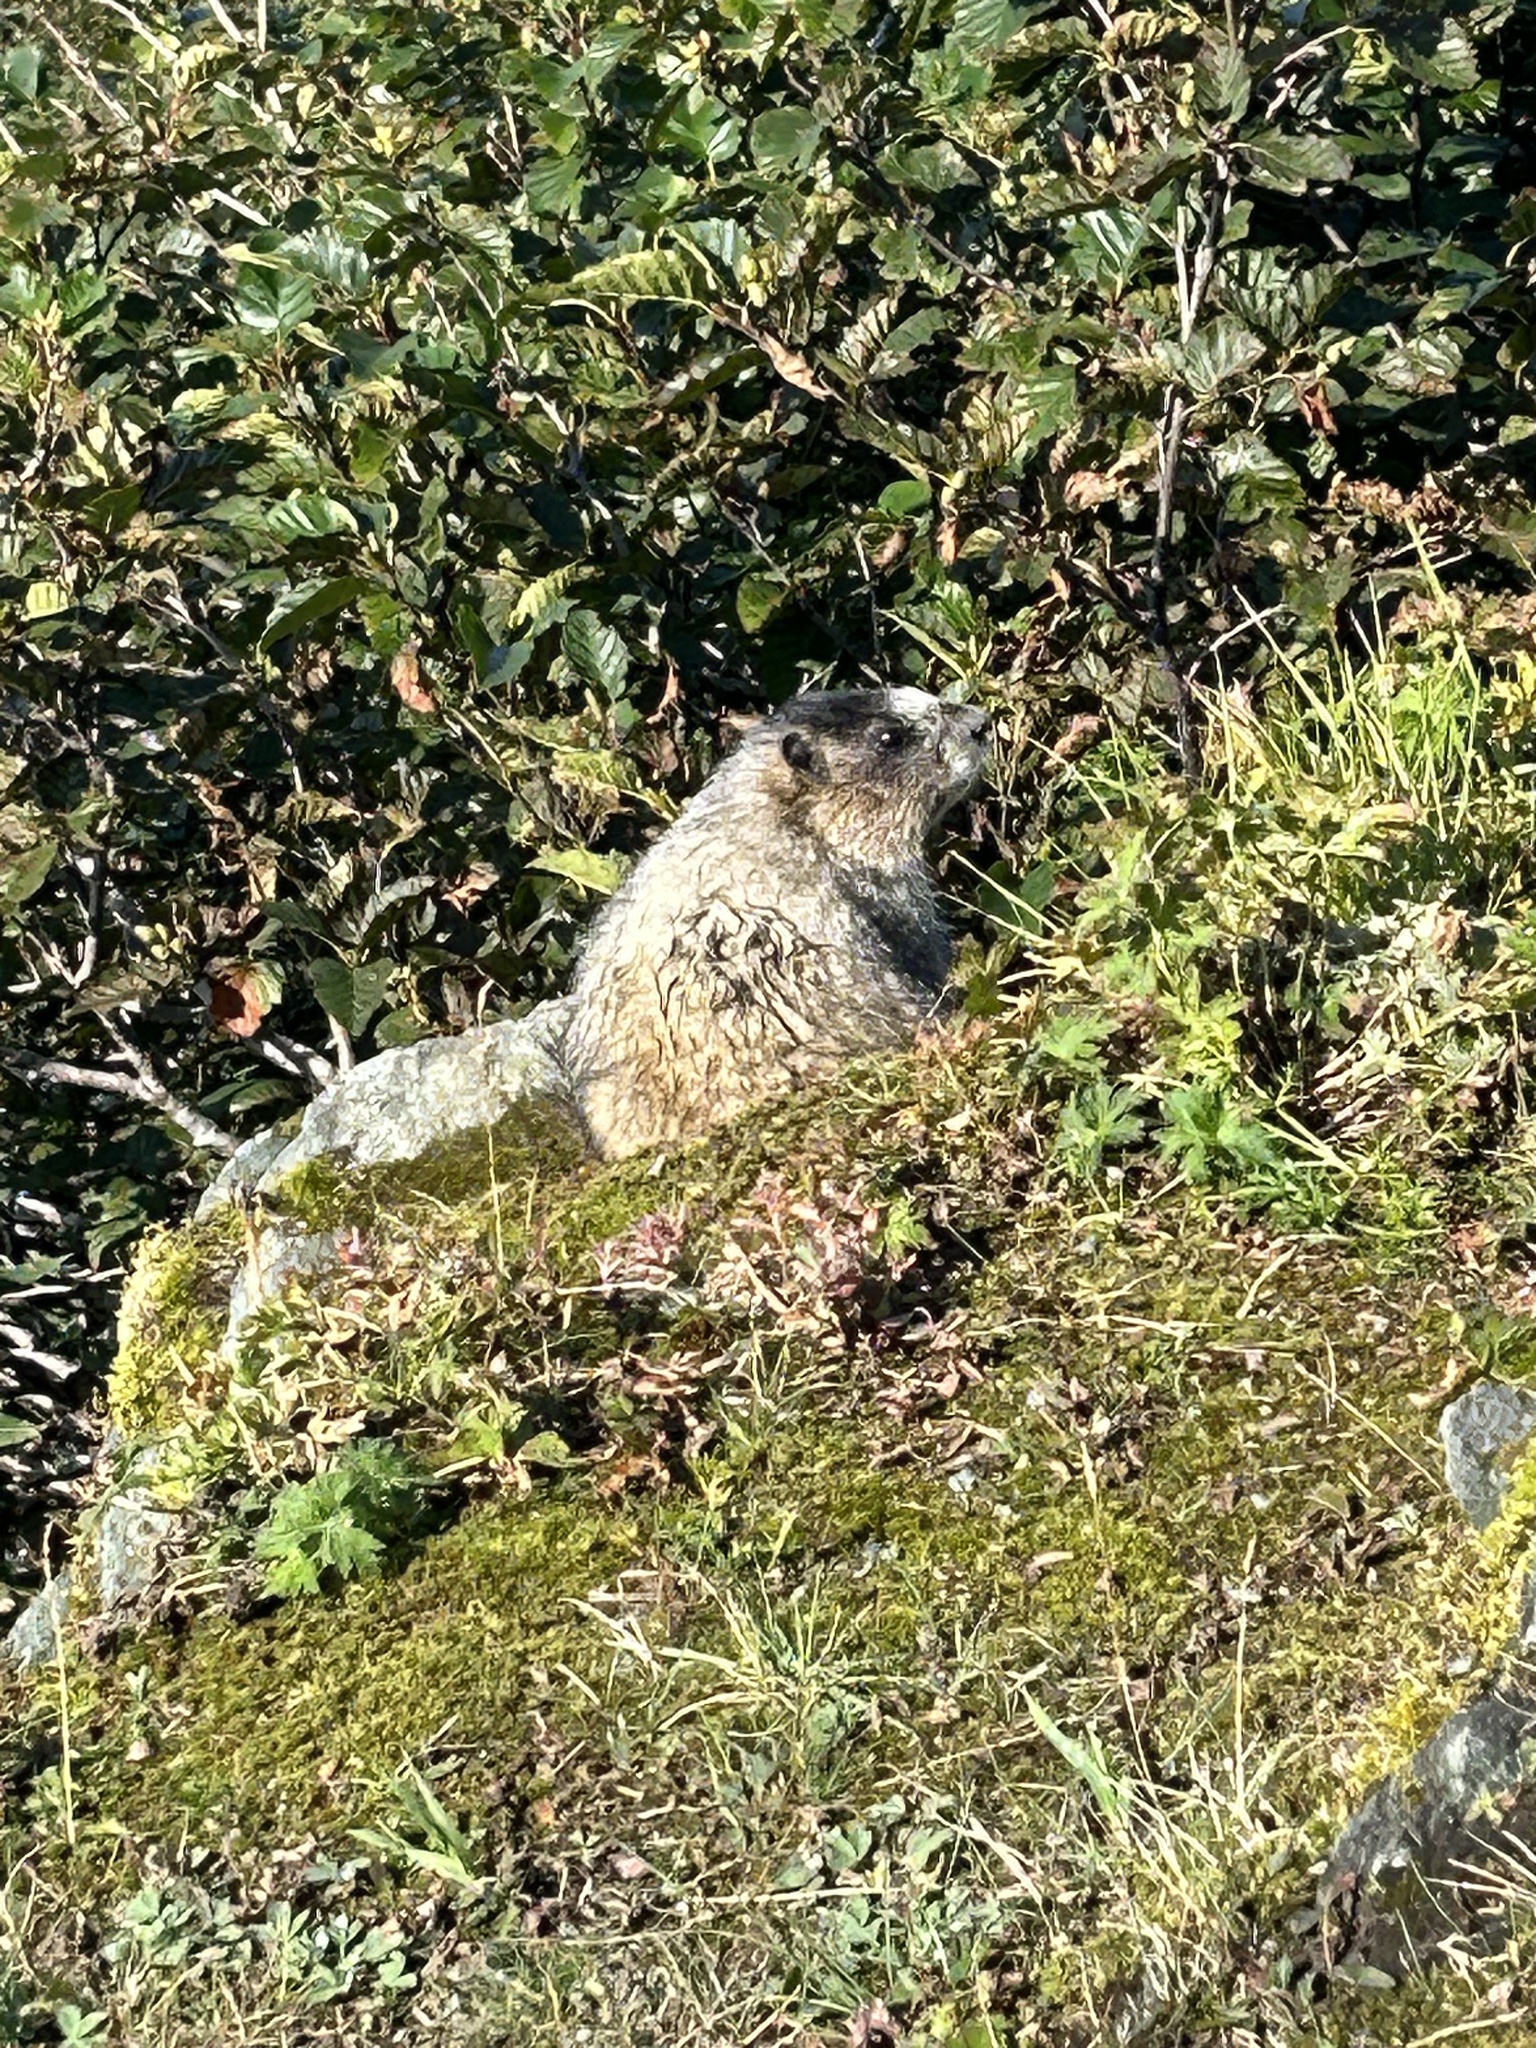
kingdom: Animalia
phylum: Chordata
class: Mammalia
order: Rodentia
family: Sciuridae
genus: Marmota
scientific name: Marmota caligata
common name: Hoary marmot
